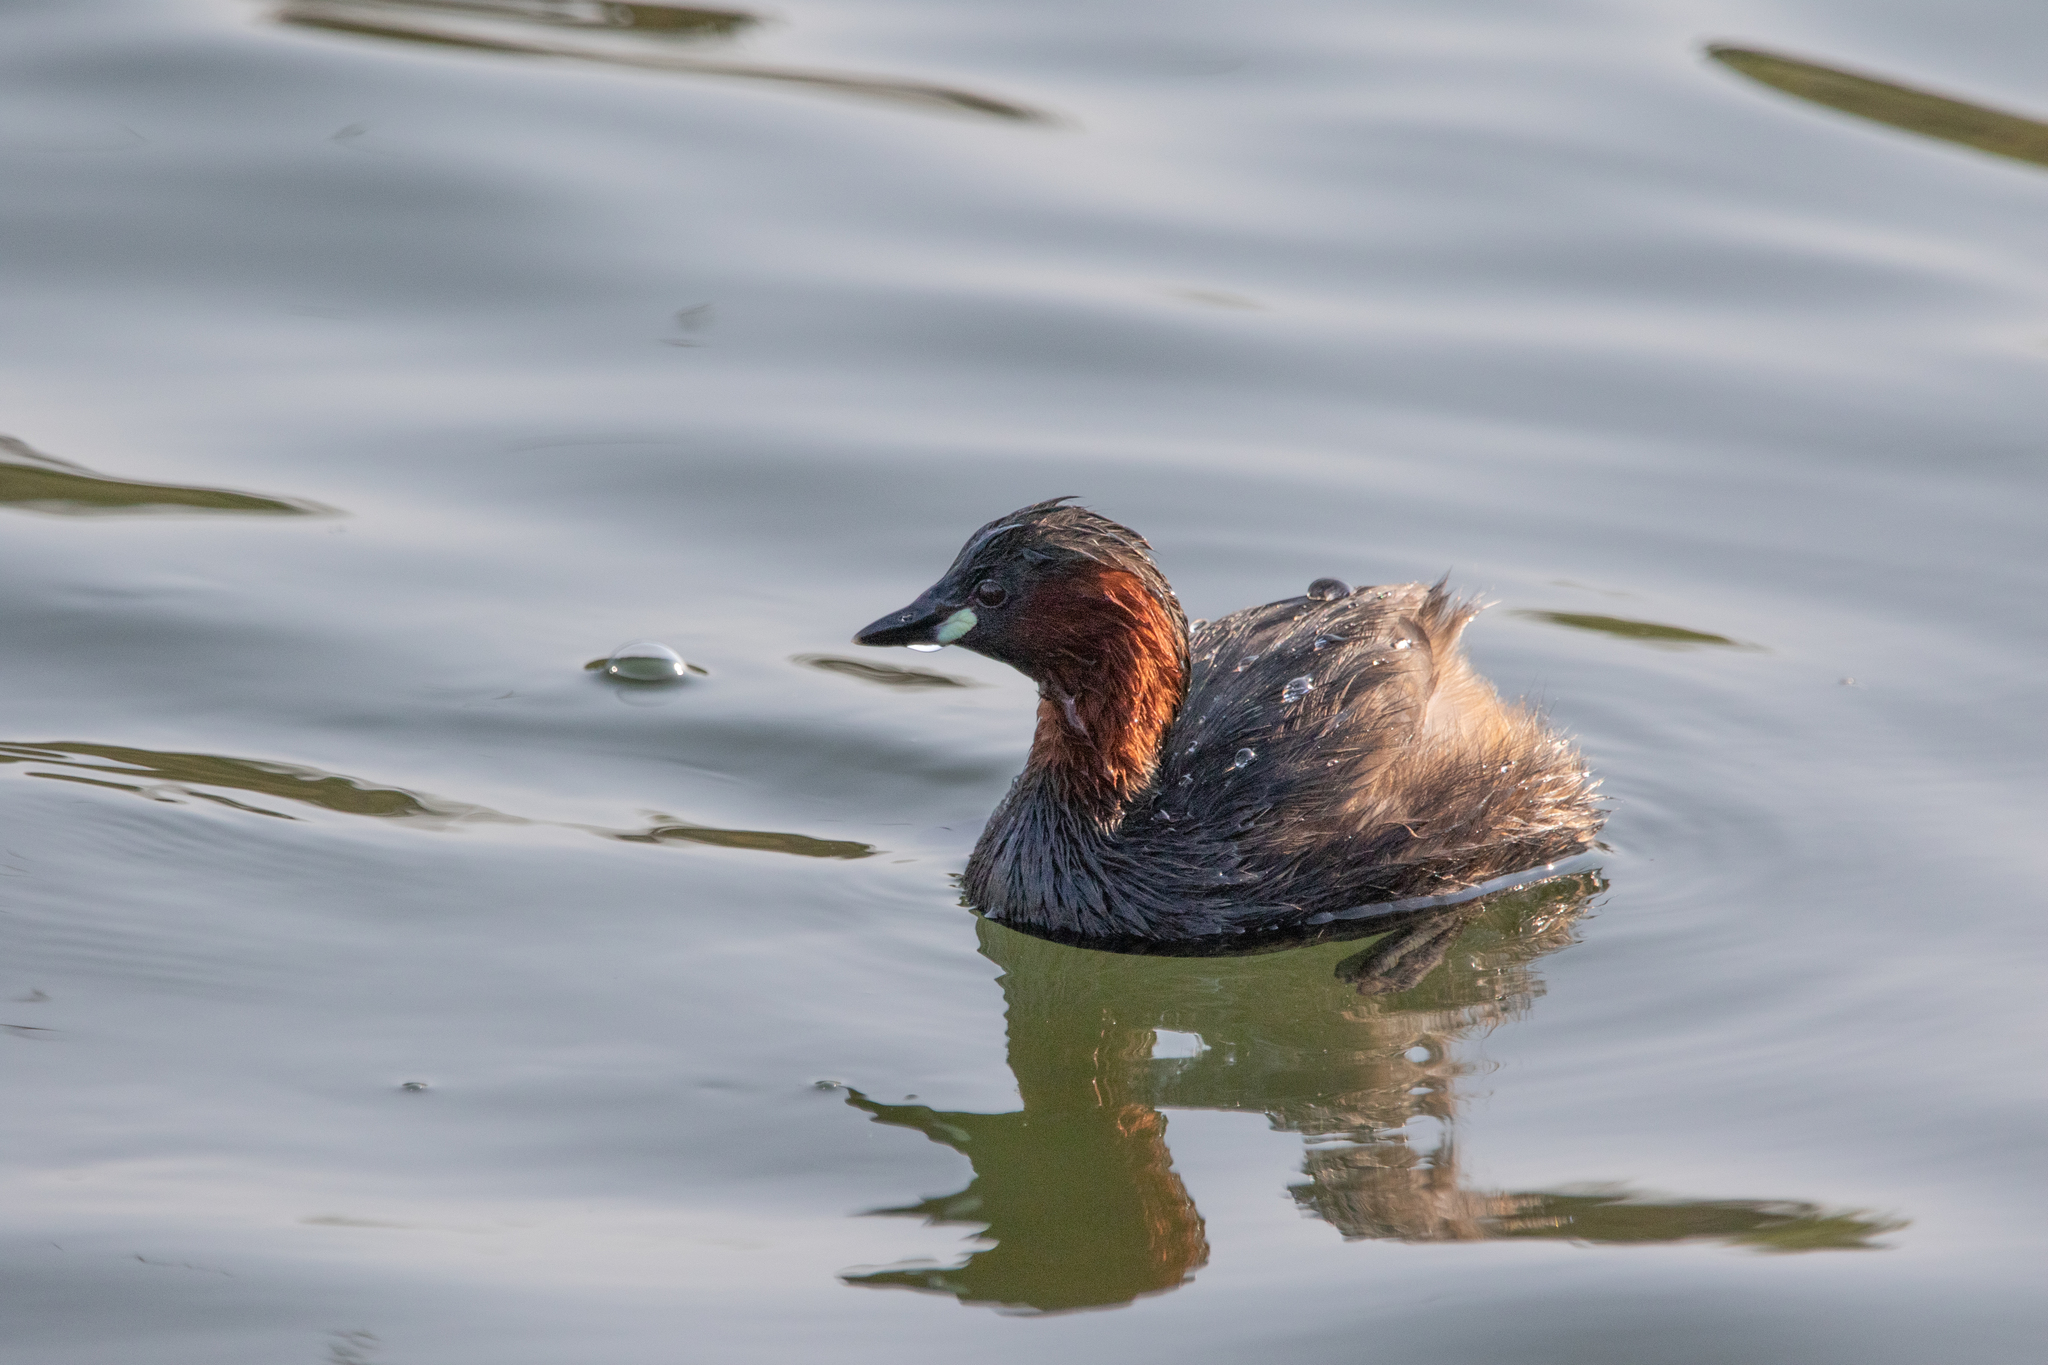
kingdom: Animalia
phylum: Chordata
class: Aves
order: Podicipediformes
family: Podicipedidae
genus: Tachybaptus
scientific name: Tachybaptus ruficollis
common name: Little grebe
